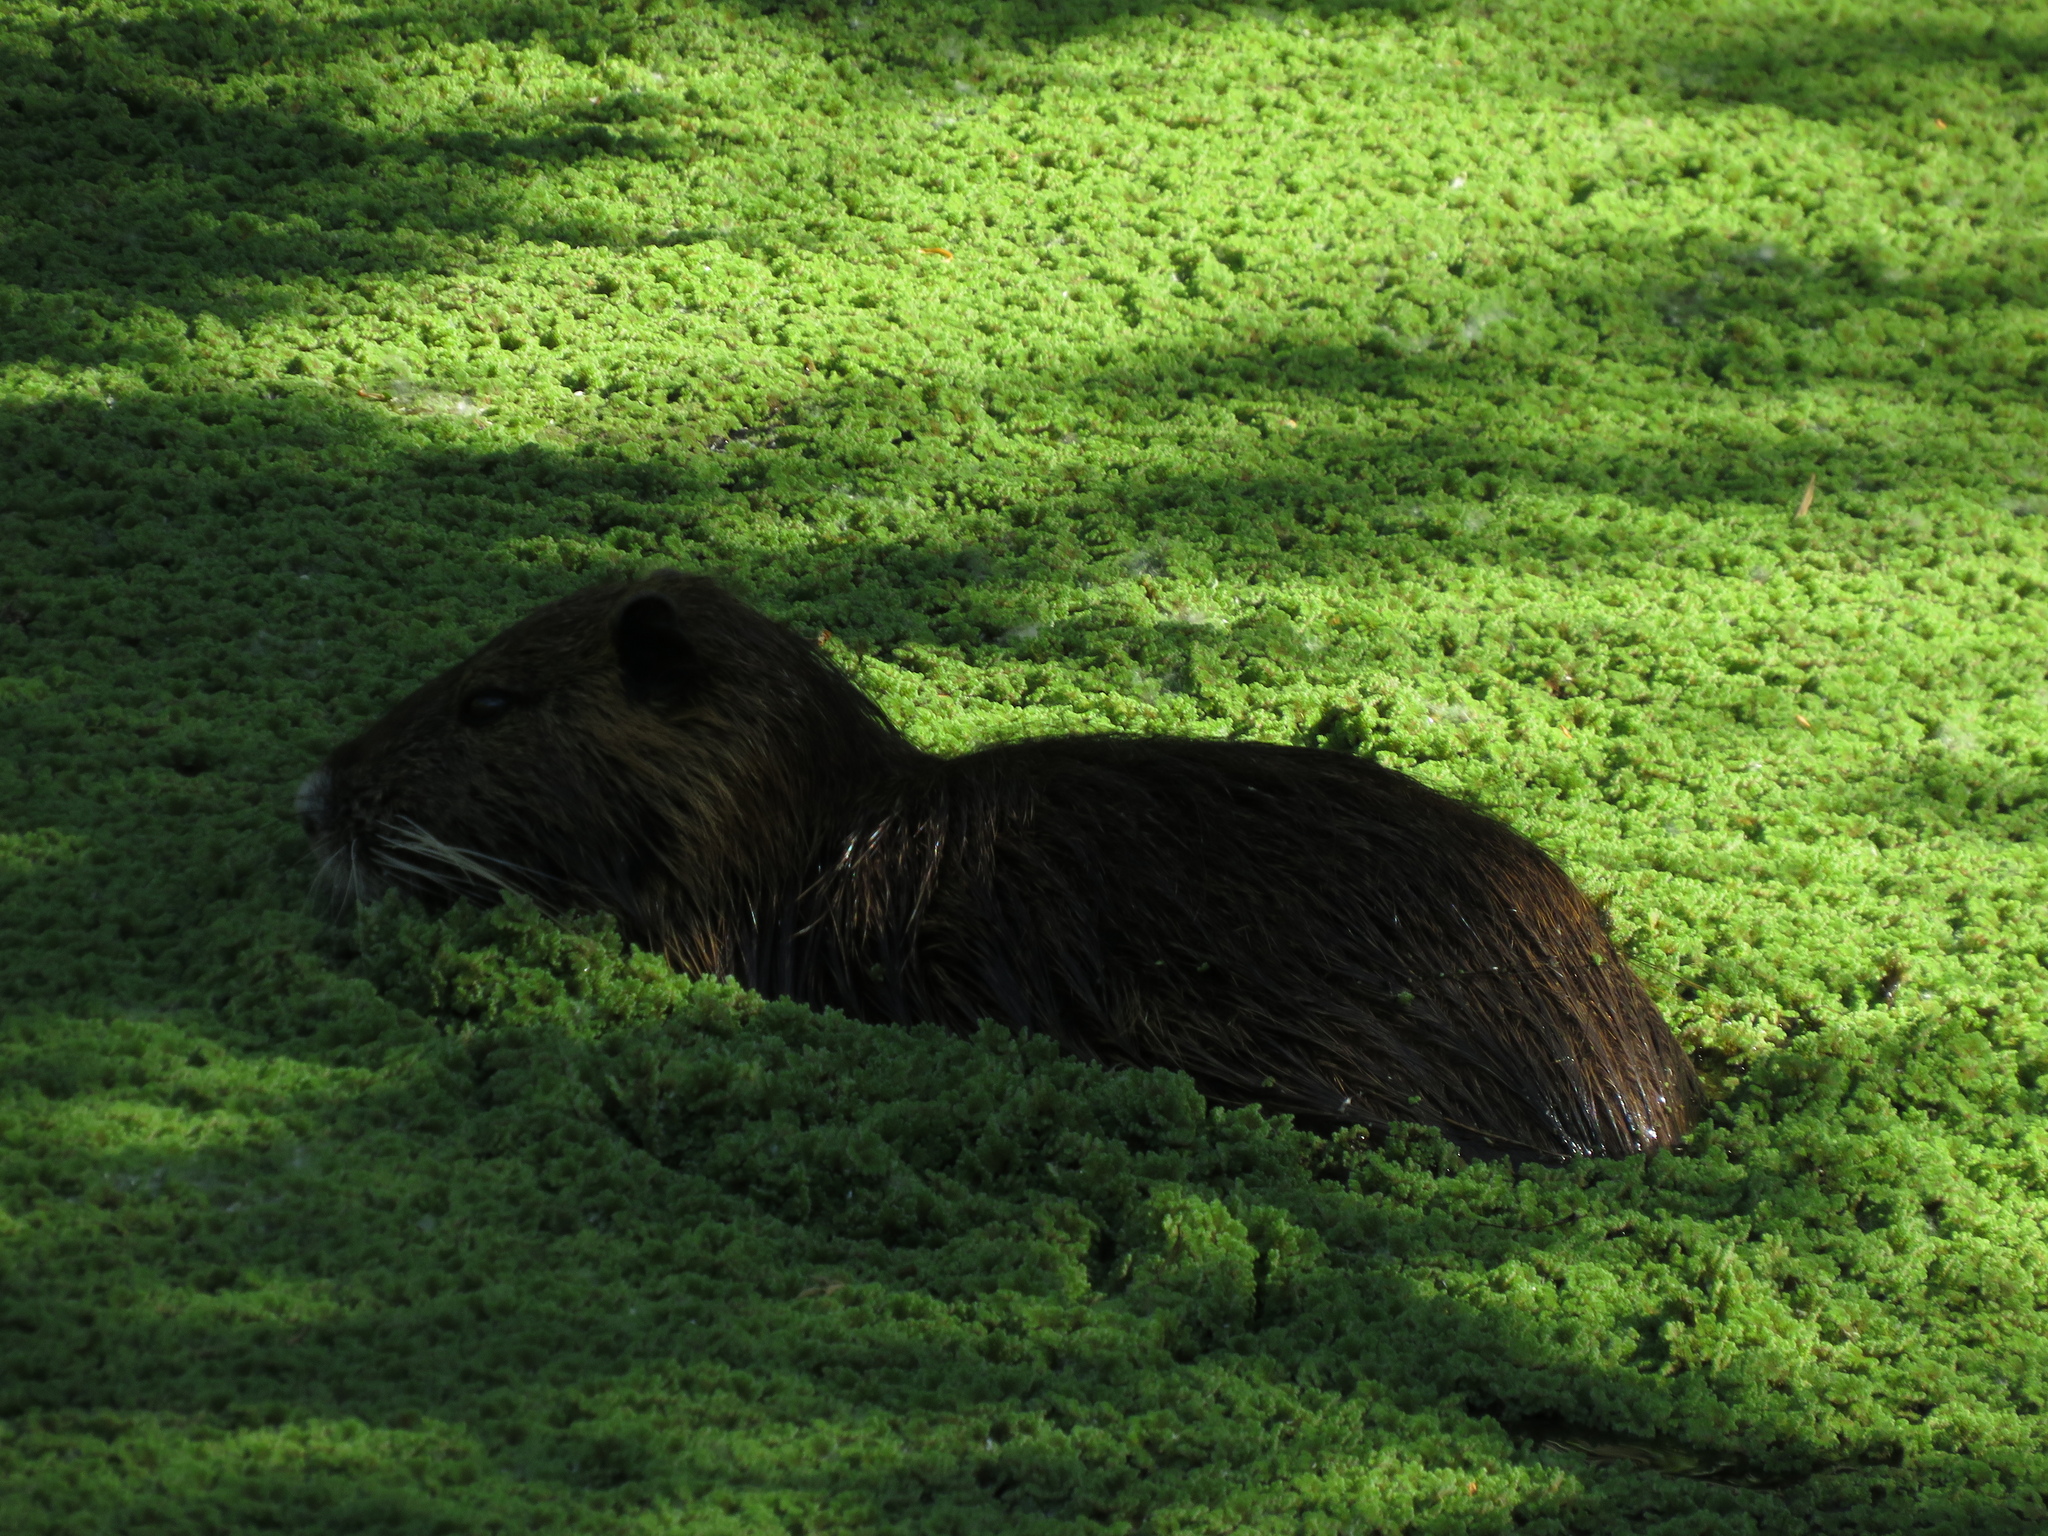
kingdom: Animalia
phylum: Chordata
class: Mammalia
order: Rodentia
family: Myocastoridae
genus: Myocastor
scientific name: Myocastor coypus
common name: Coypu
